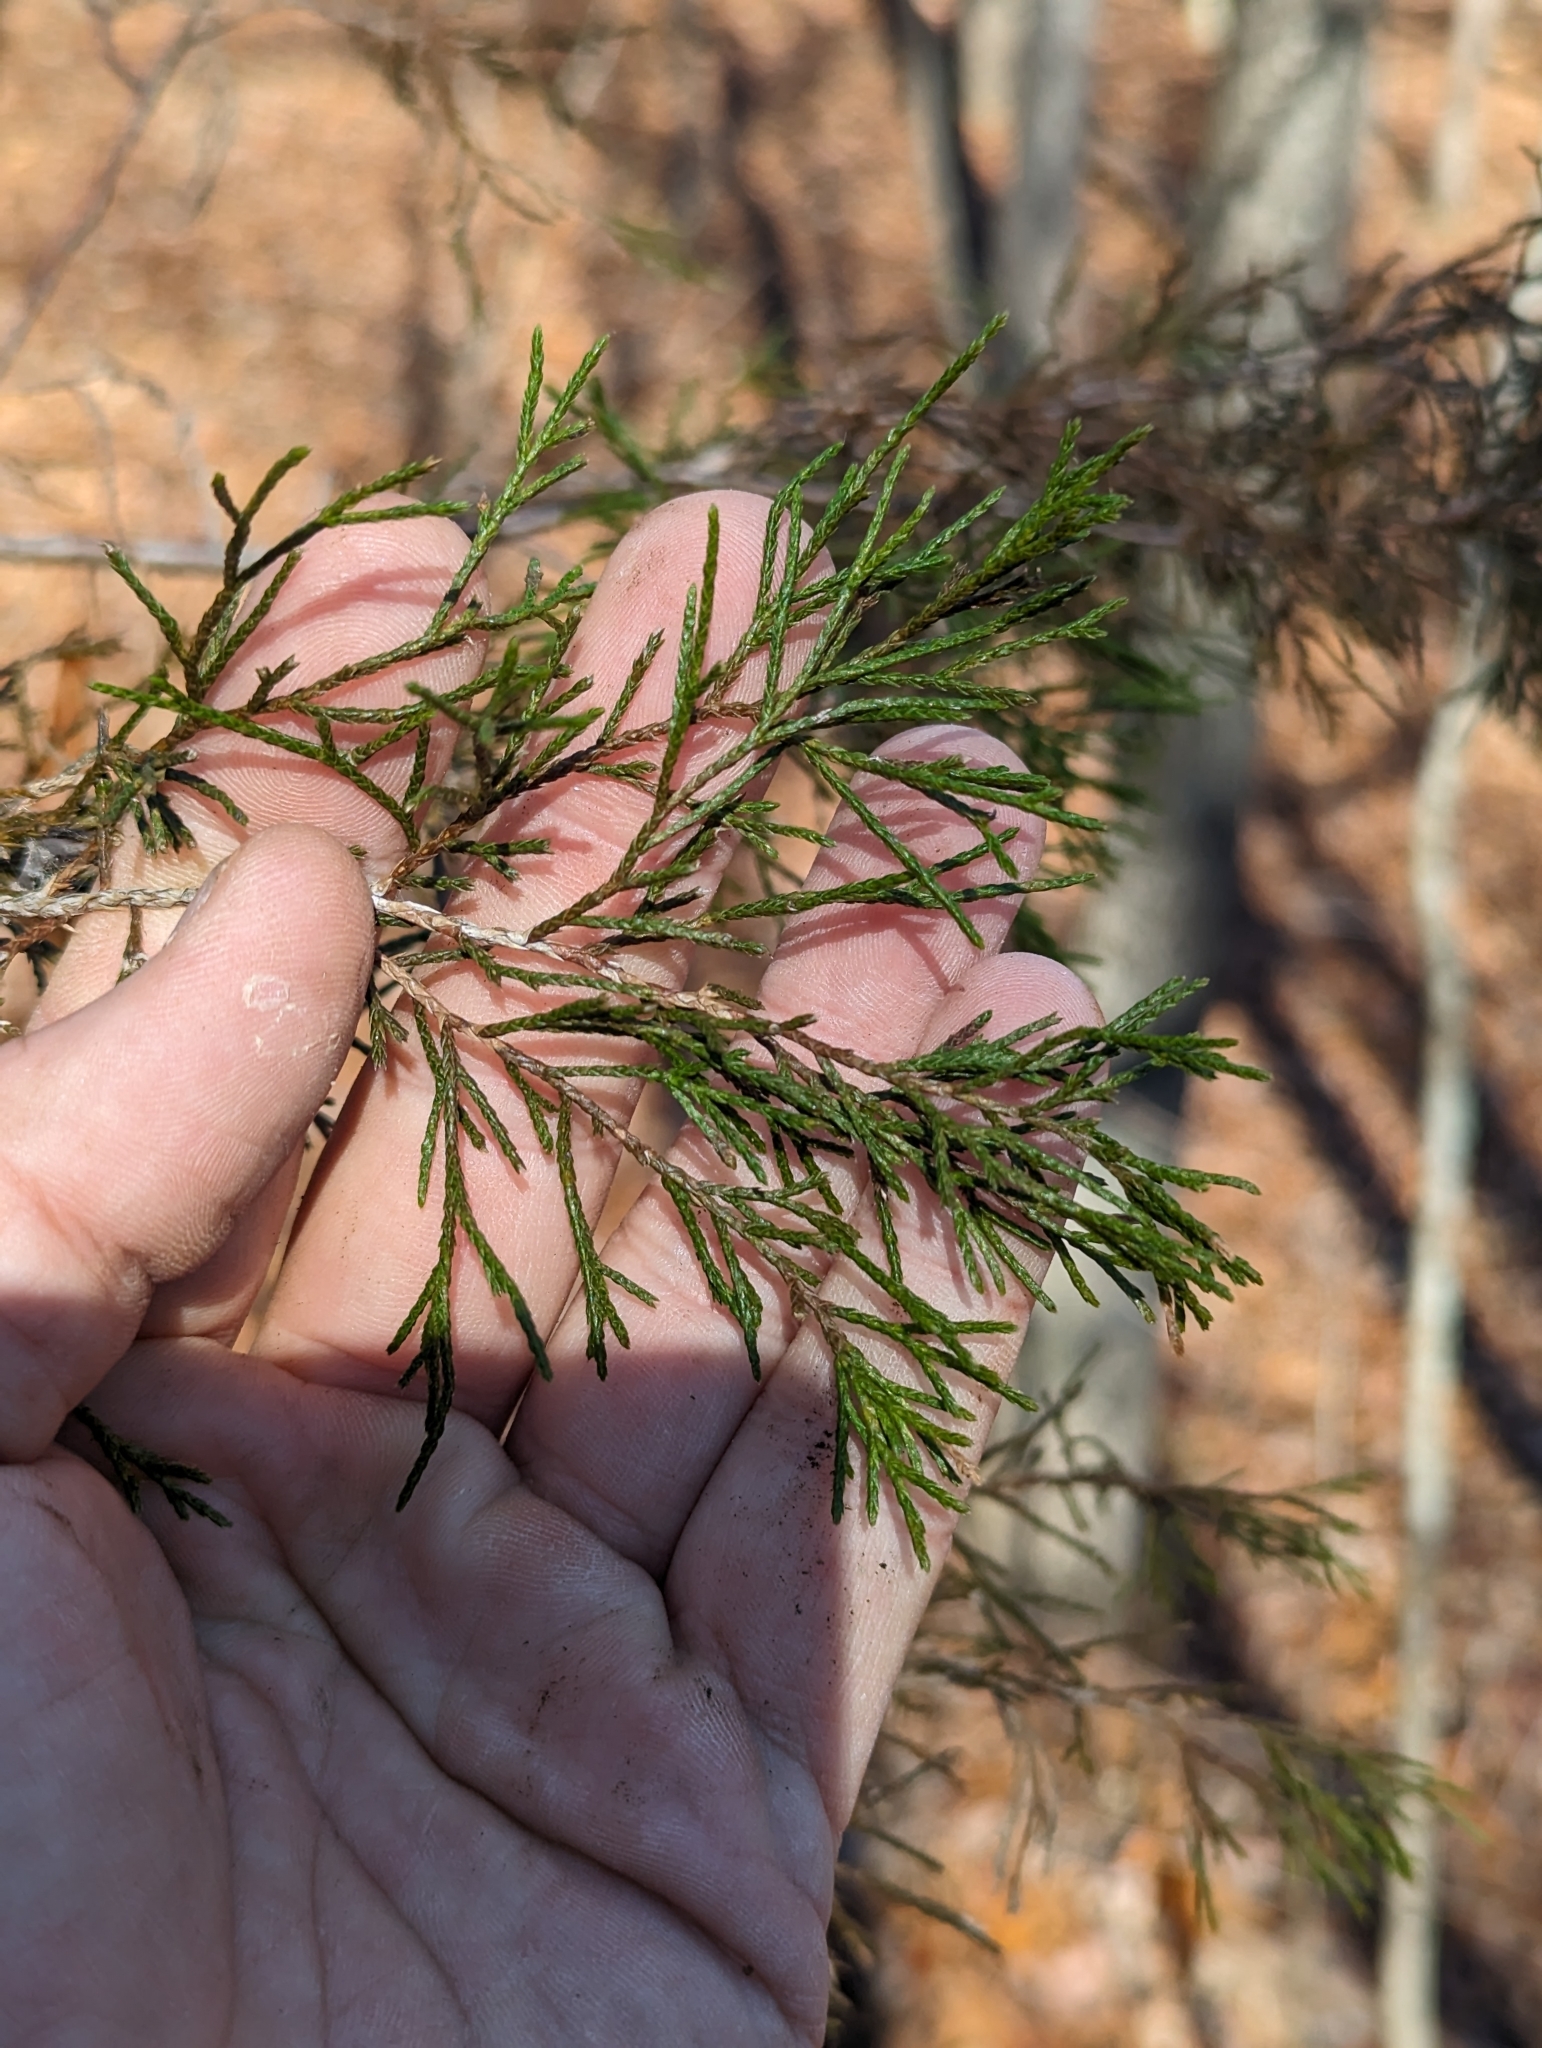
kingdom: Plantae
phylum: Tracheophyta
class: Pinopsida
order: Pinales
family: Cupressaceae
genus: Juniperus
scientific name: Juniperus virginiana
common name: Red juniper
